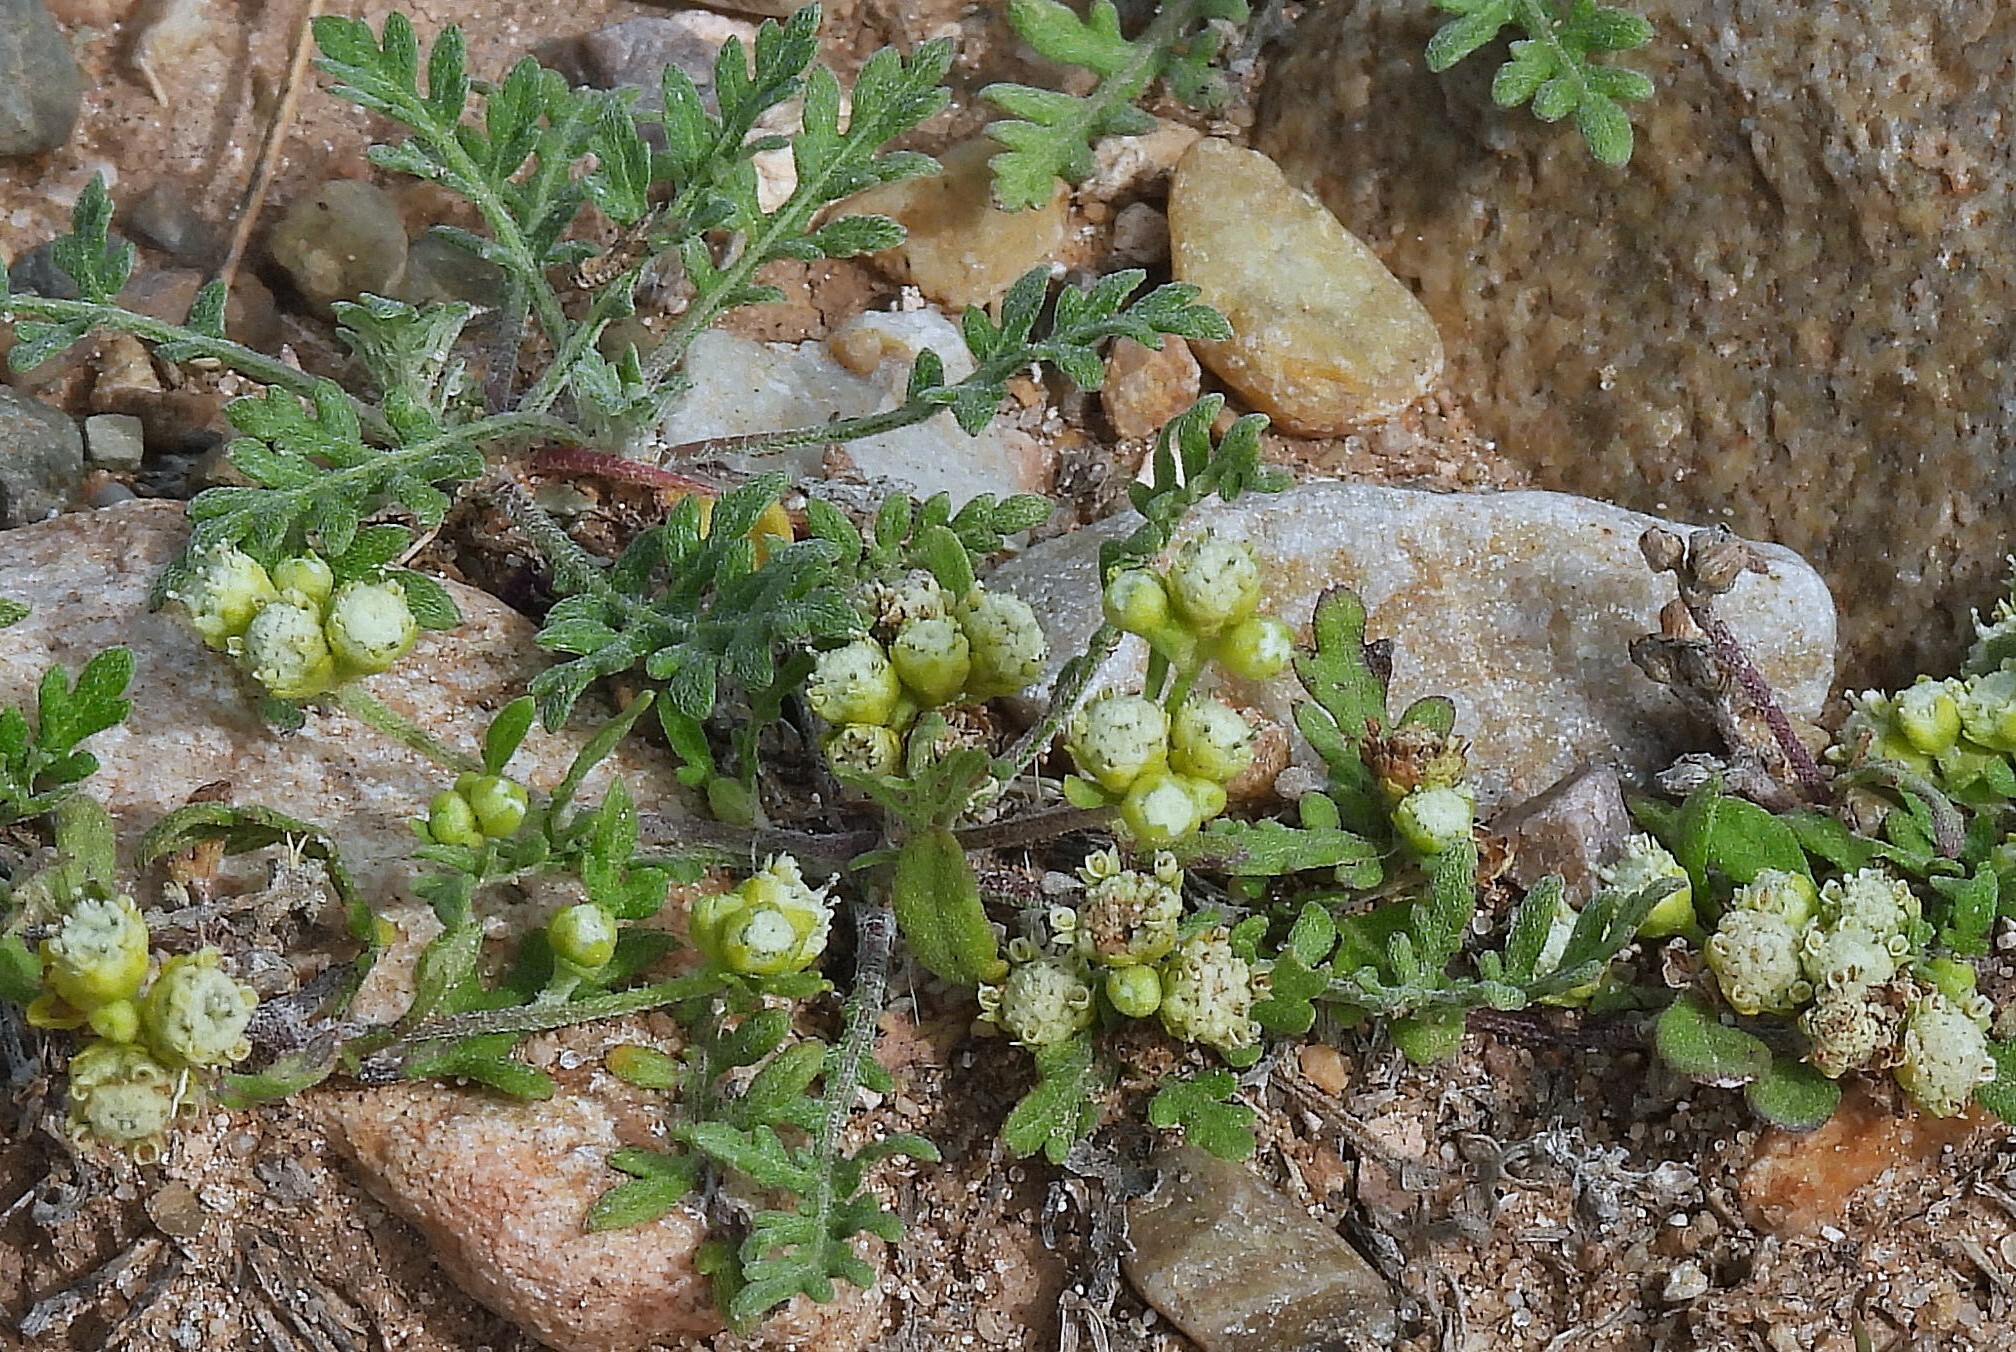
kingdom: Plantae
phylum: Tracheophyta
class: Magnoliopsida
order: Asterales
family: Asteraceae
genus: Parthenium
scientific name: Parthenium hysterophorus
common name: Santa maria feverfew
